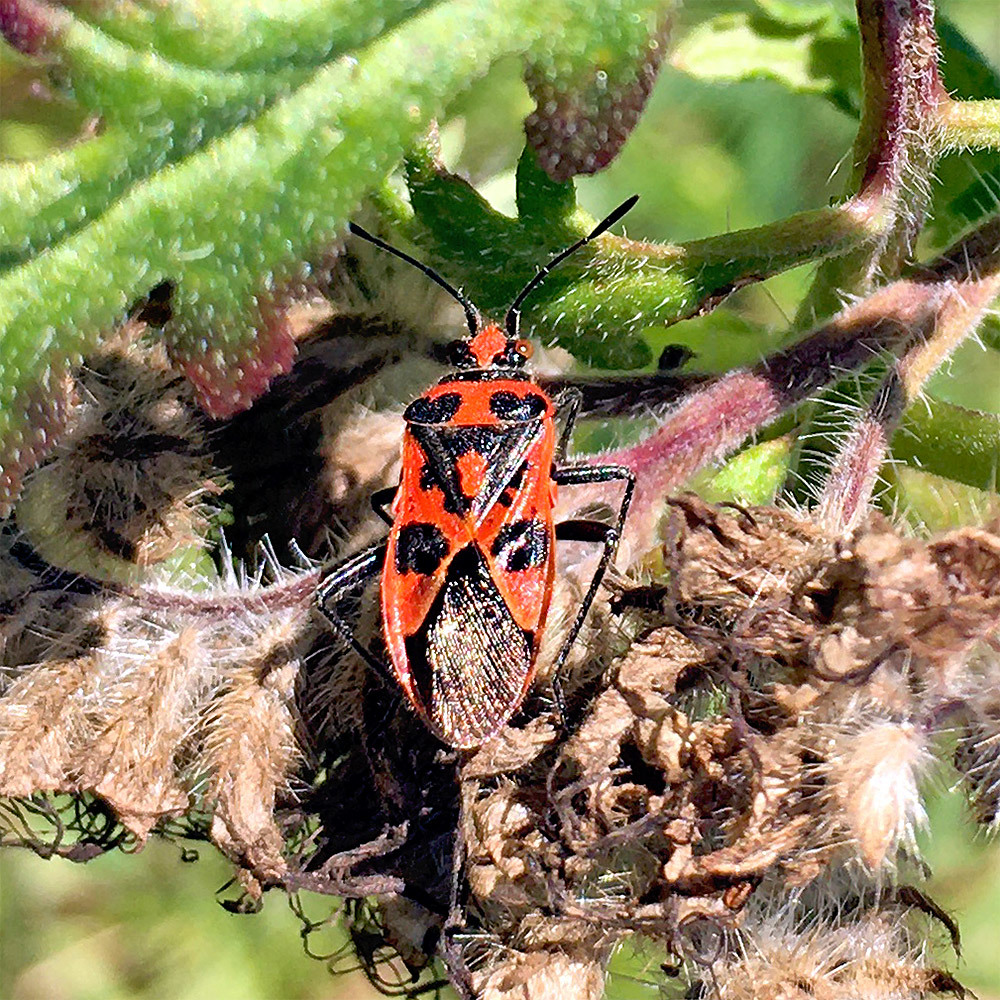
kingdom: Animalia
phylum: Arthropoda
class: Insecta
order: Hemiptera
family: Rhopalidae
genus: Corizus
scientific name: Corizus hyoscyami
